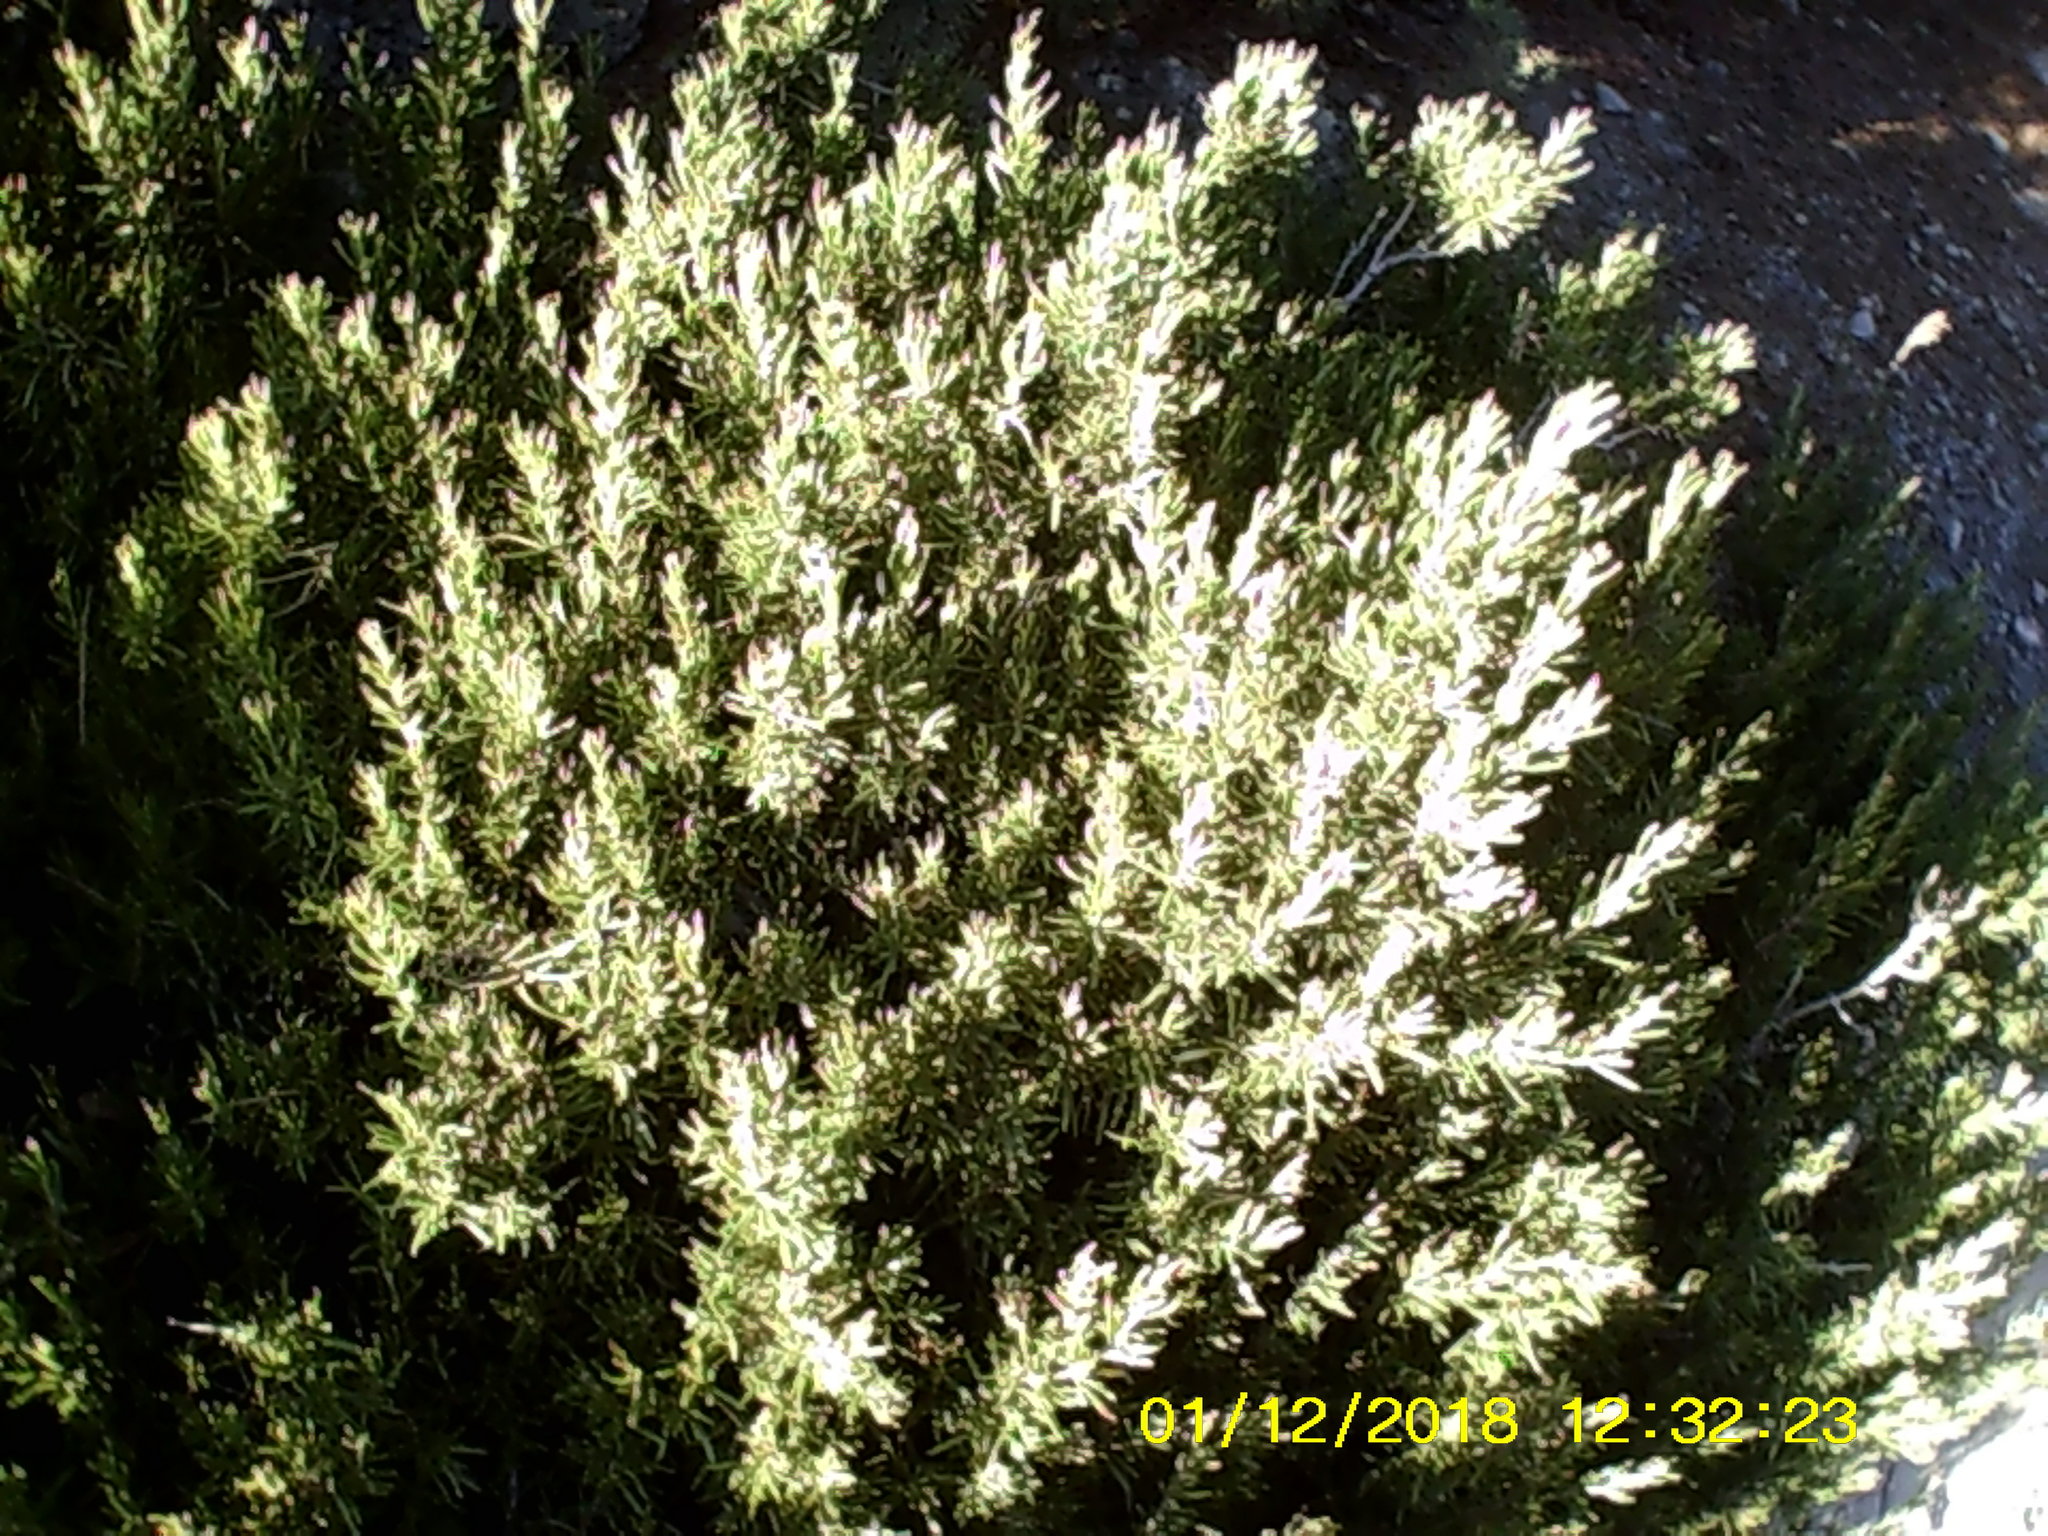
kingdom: Plantae
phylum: Tracheophyta
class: Magnoliopsida
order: Lamiales
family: Lamiaceae
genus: Salvia
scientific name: Salvia rosmarinus
